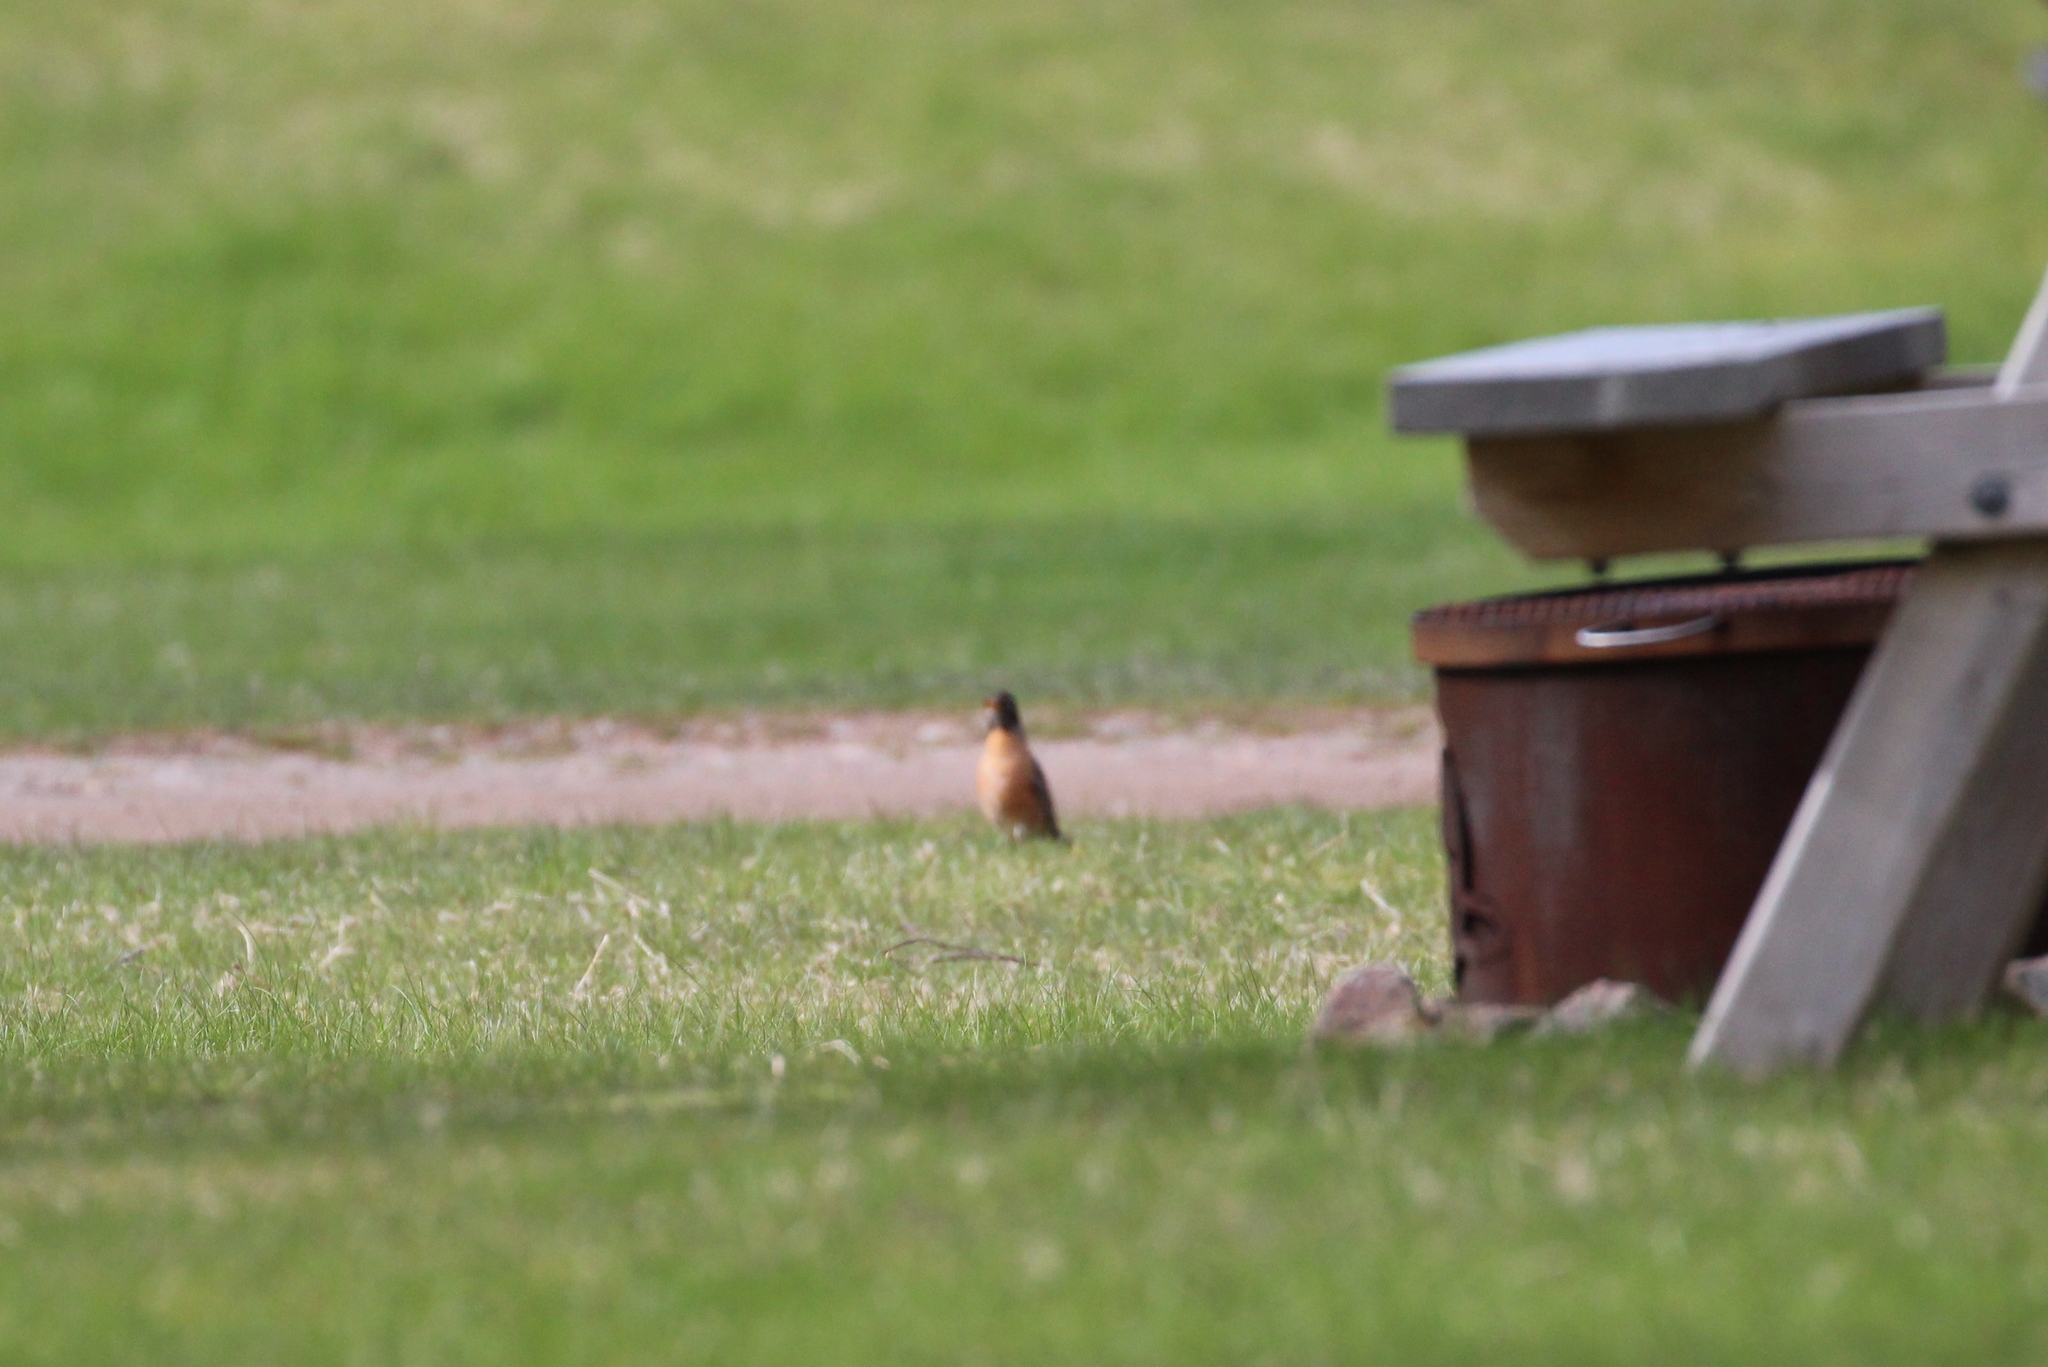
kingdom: Animalia
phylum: Chordata
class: Aves
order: Passeriformes
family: Turdidae
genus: Turdus
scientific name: Turdus migratorius
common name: American robin
